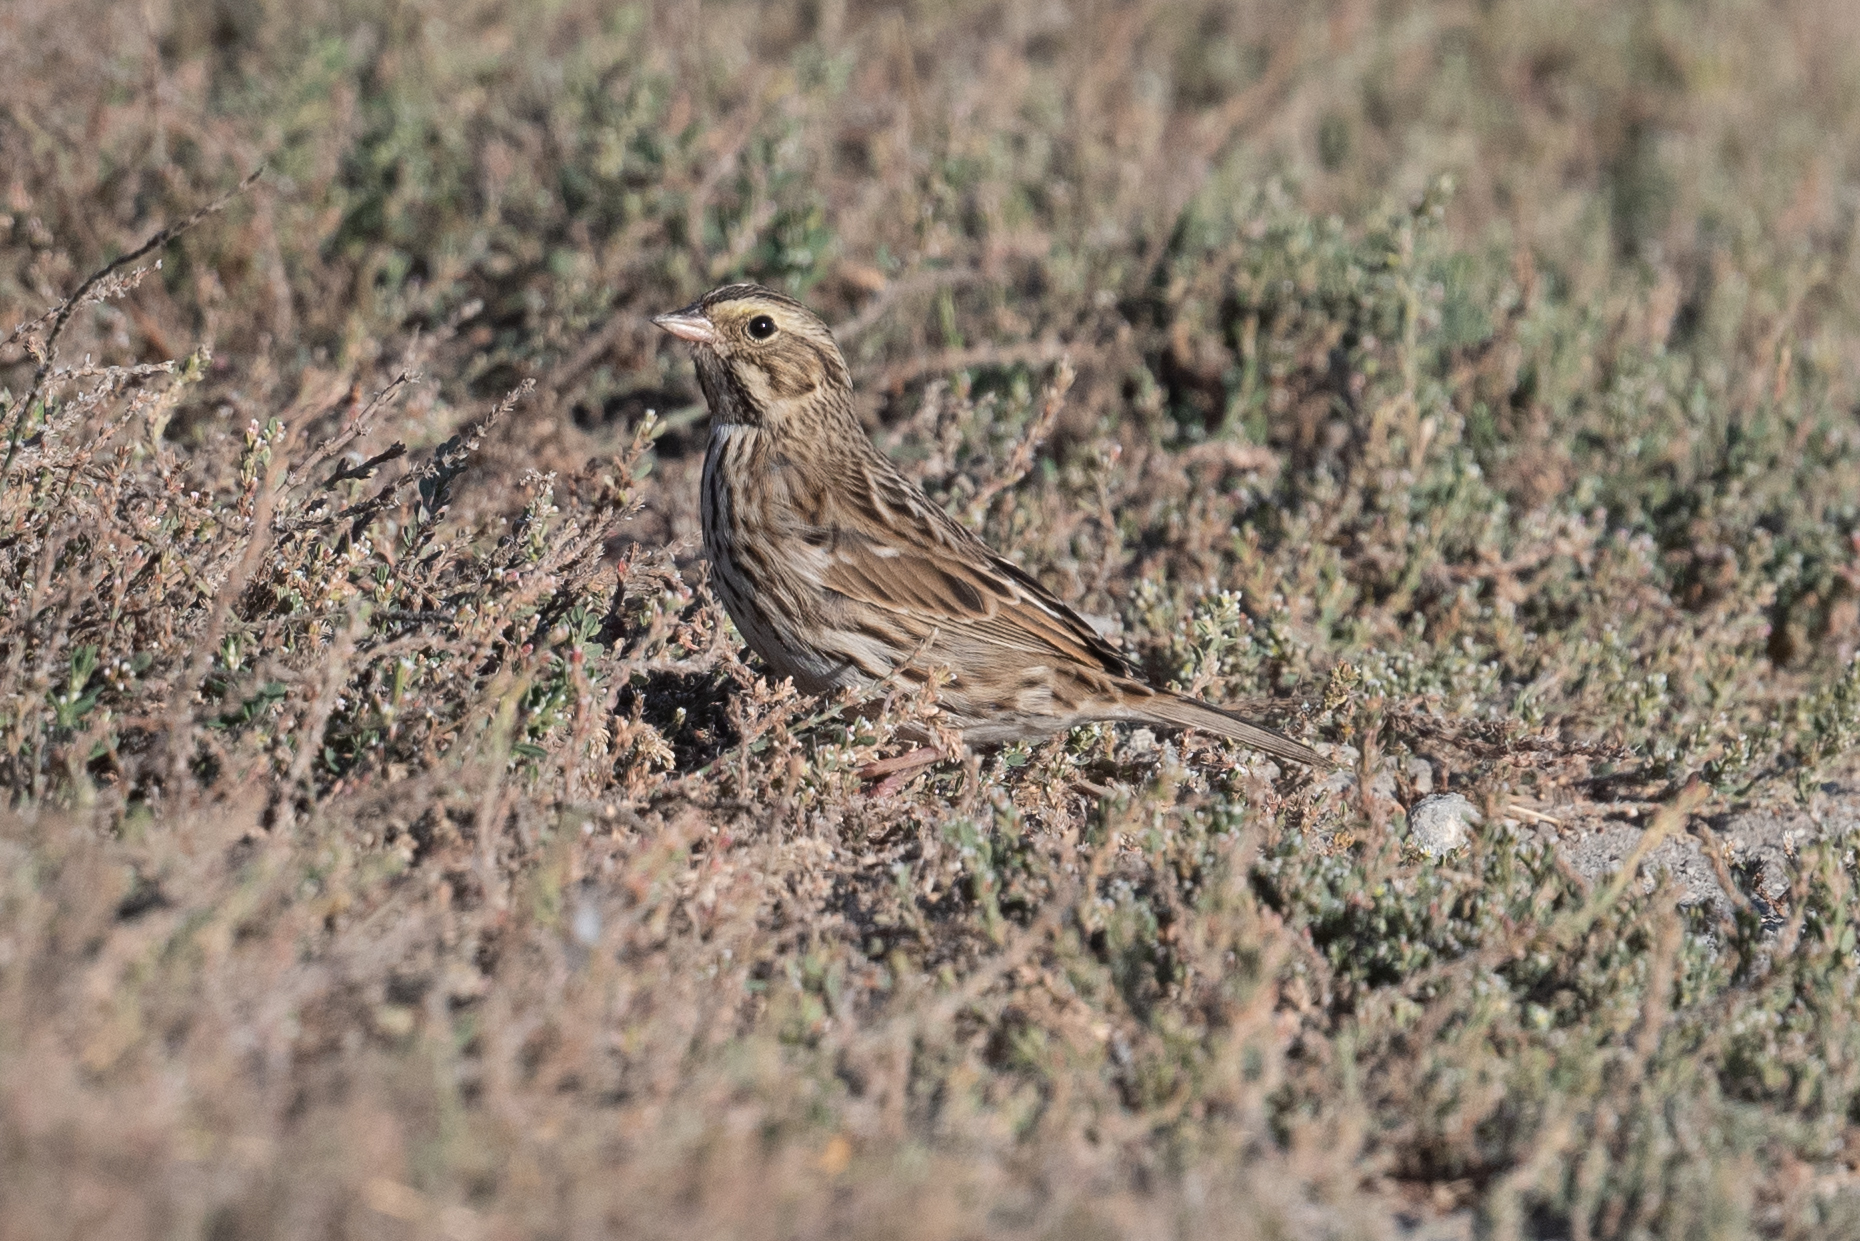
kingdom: Animalia
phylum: Chordata
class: Aves
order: Passeriformes
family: Passerellidae
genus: Passerculus
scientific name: Passerculus sandwichensis
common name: Savannah sparrow
